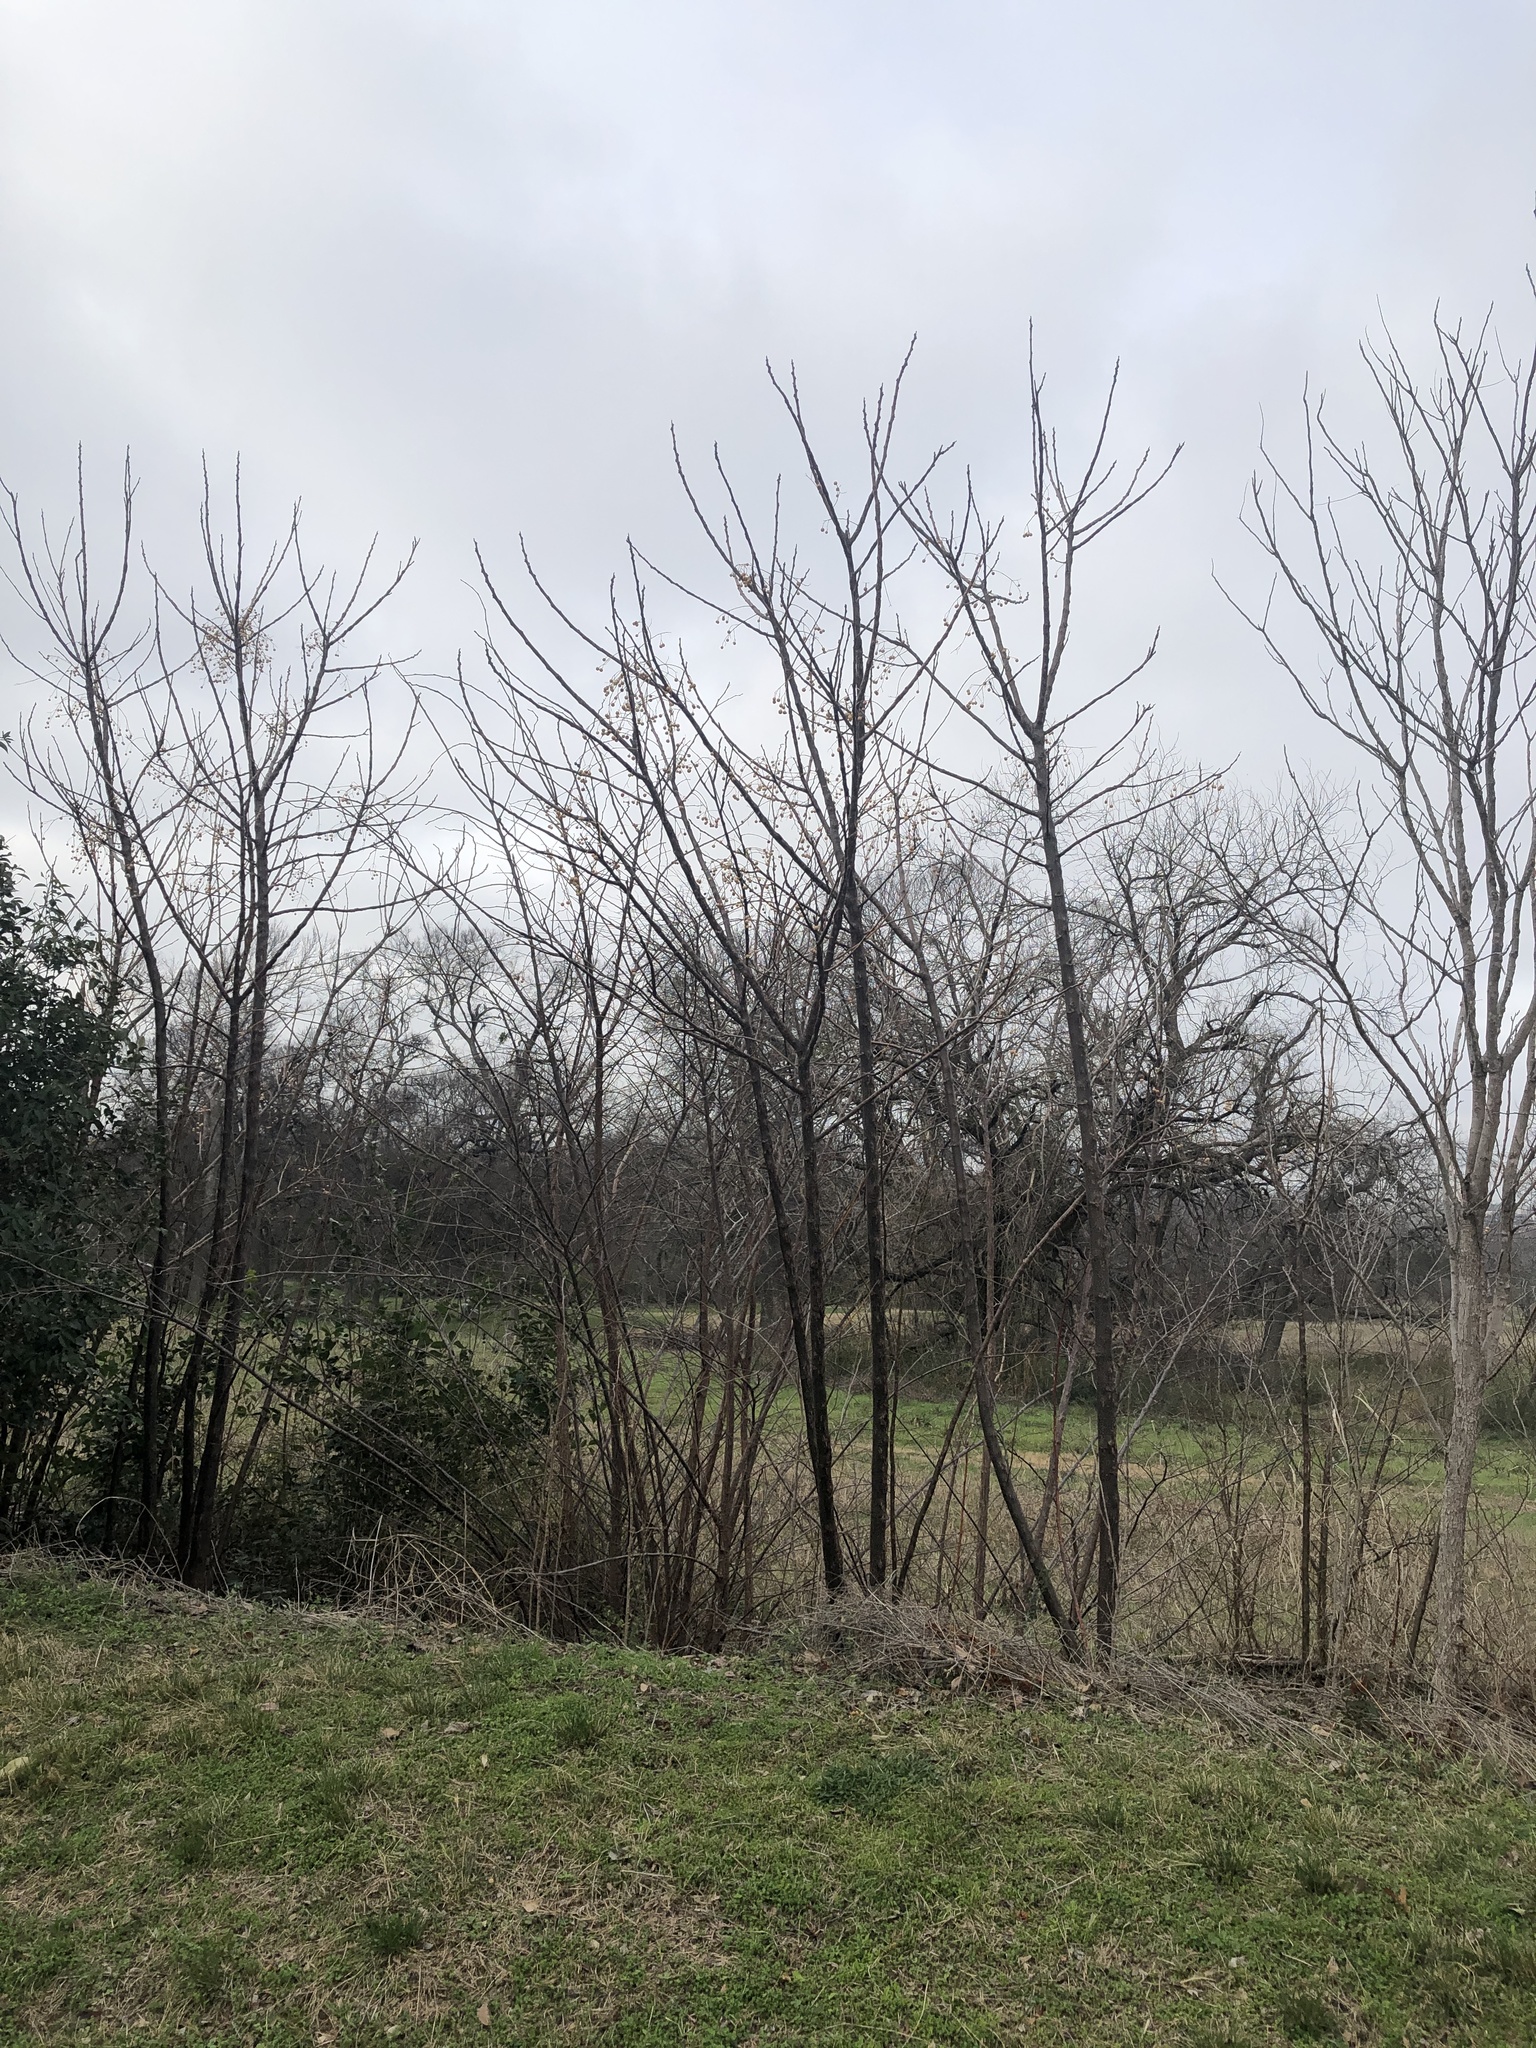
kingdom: Plantae
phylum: Tracheophyta
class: Magnoliopsida
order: Sapindales
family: Meliaceae
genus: Melia
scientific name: Melia azedarach
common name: Chinaberrytree
